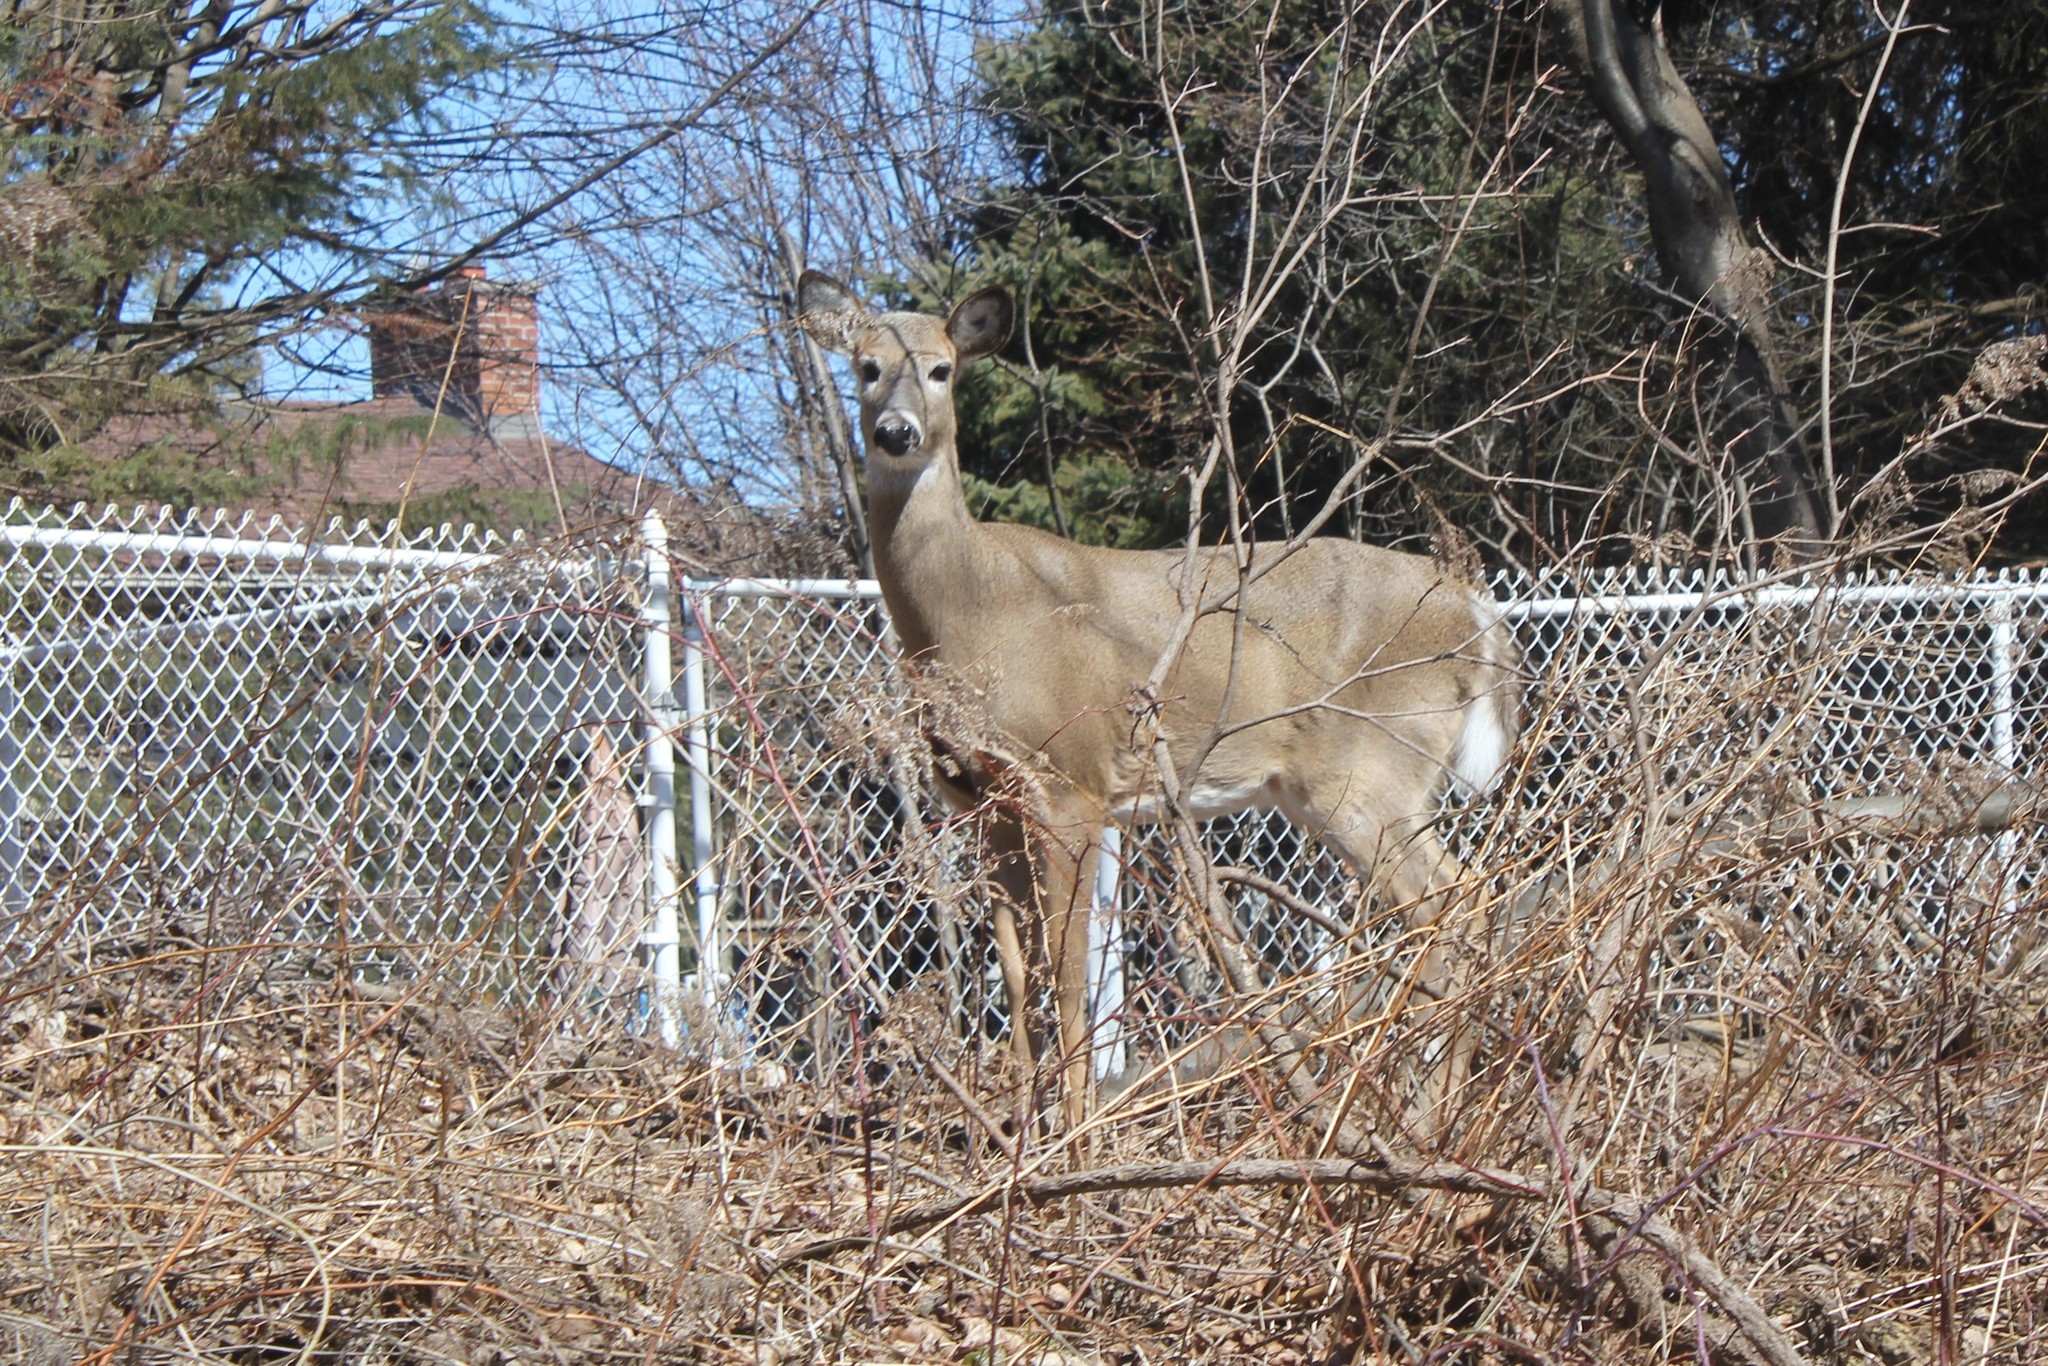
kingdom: Animalia
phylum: Chordata
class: Mammalia
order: Artiodactyla
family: Cervidae
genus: Odocoileus
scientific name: Odocoileus virginianus
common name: White-tailed deer
